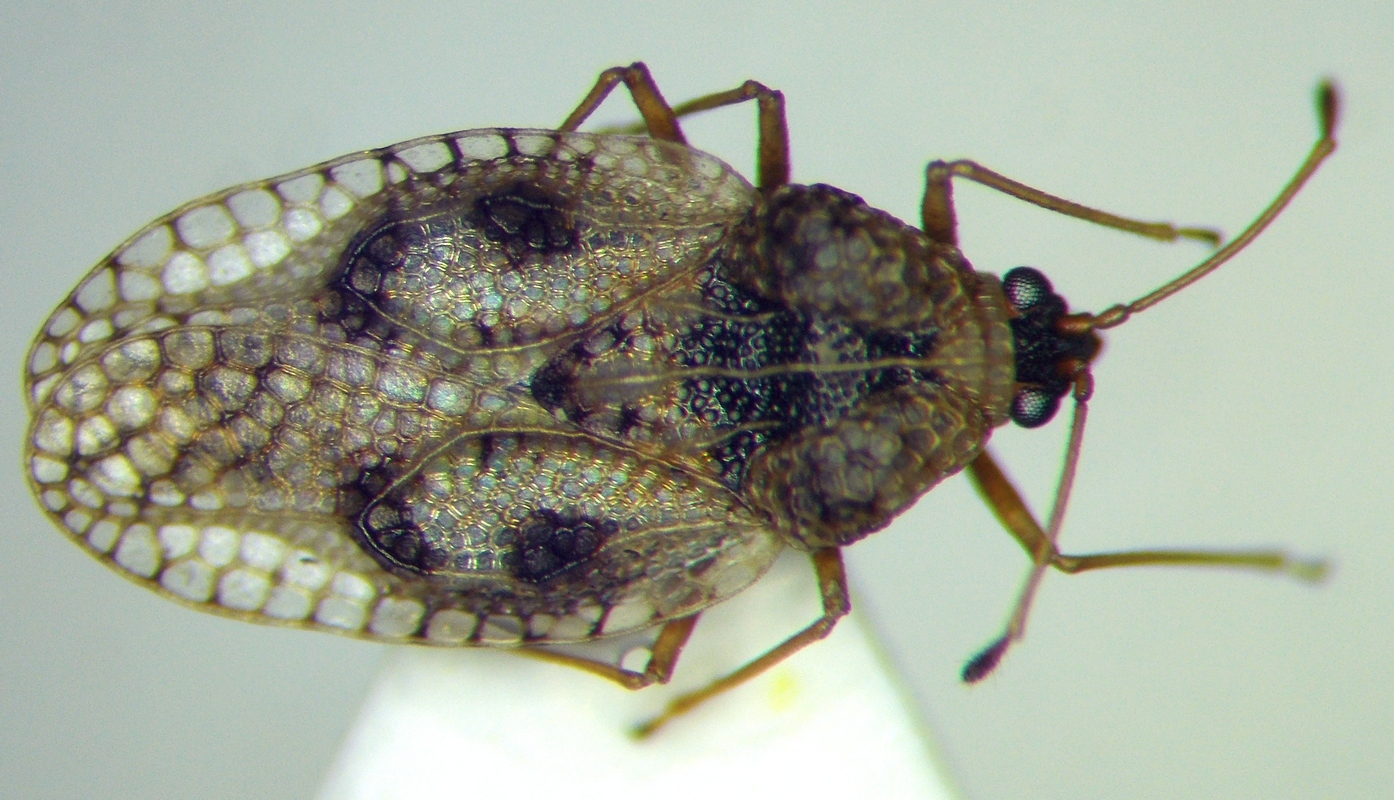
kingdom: Animalia
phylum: Arthropoda
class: Insecta
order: Hemiptera
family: Tingidae
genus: Dictyla
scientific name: Dictyla humuli
